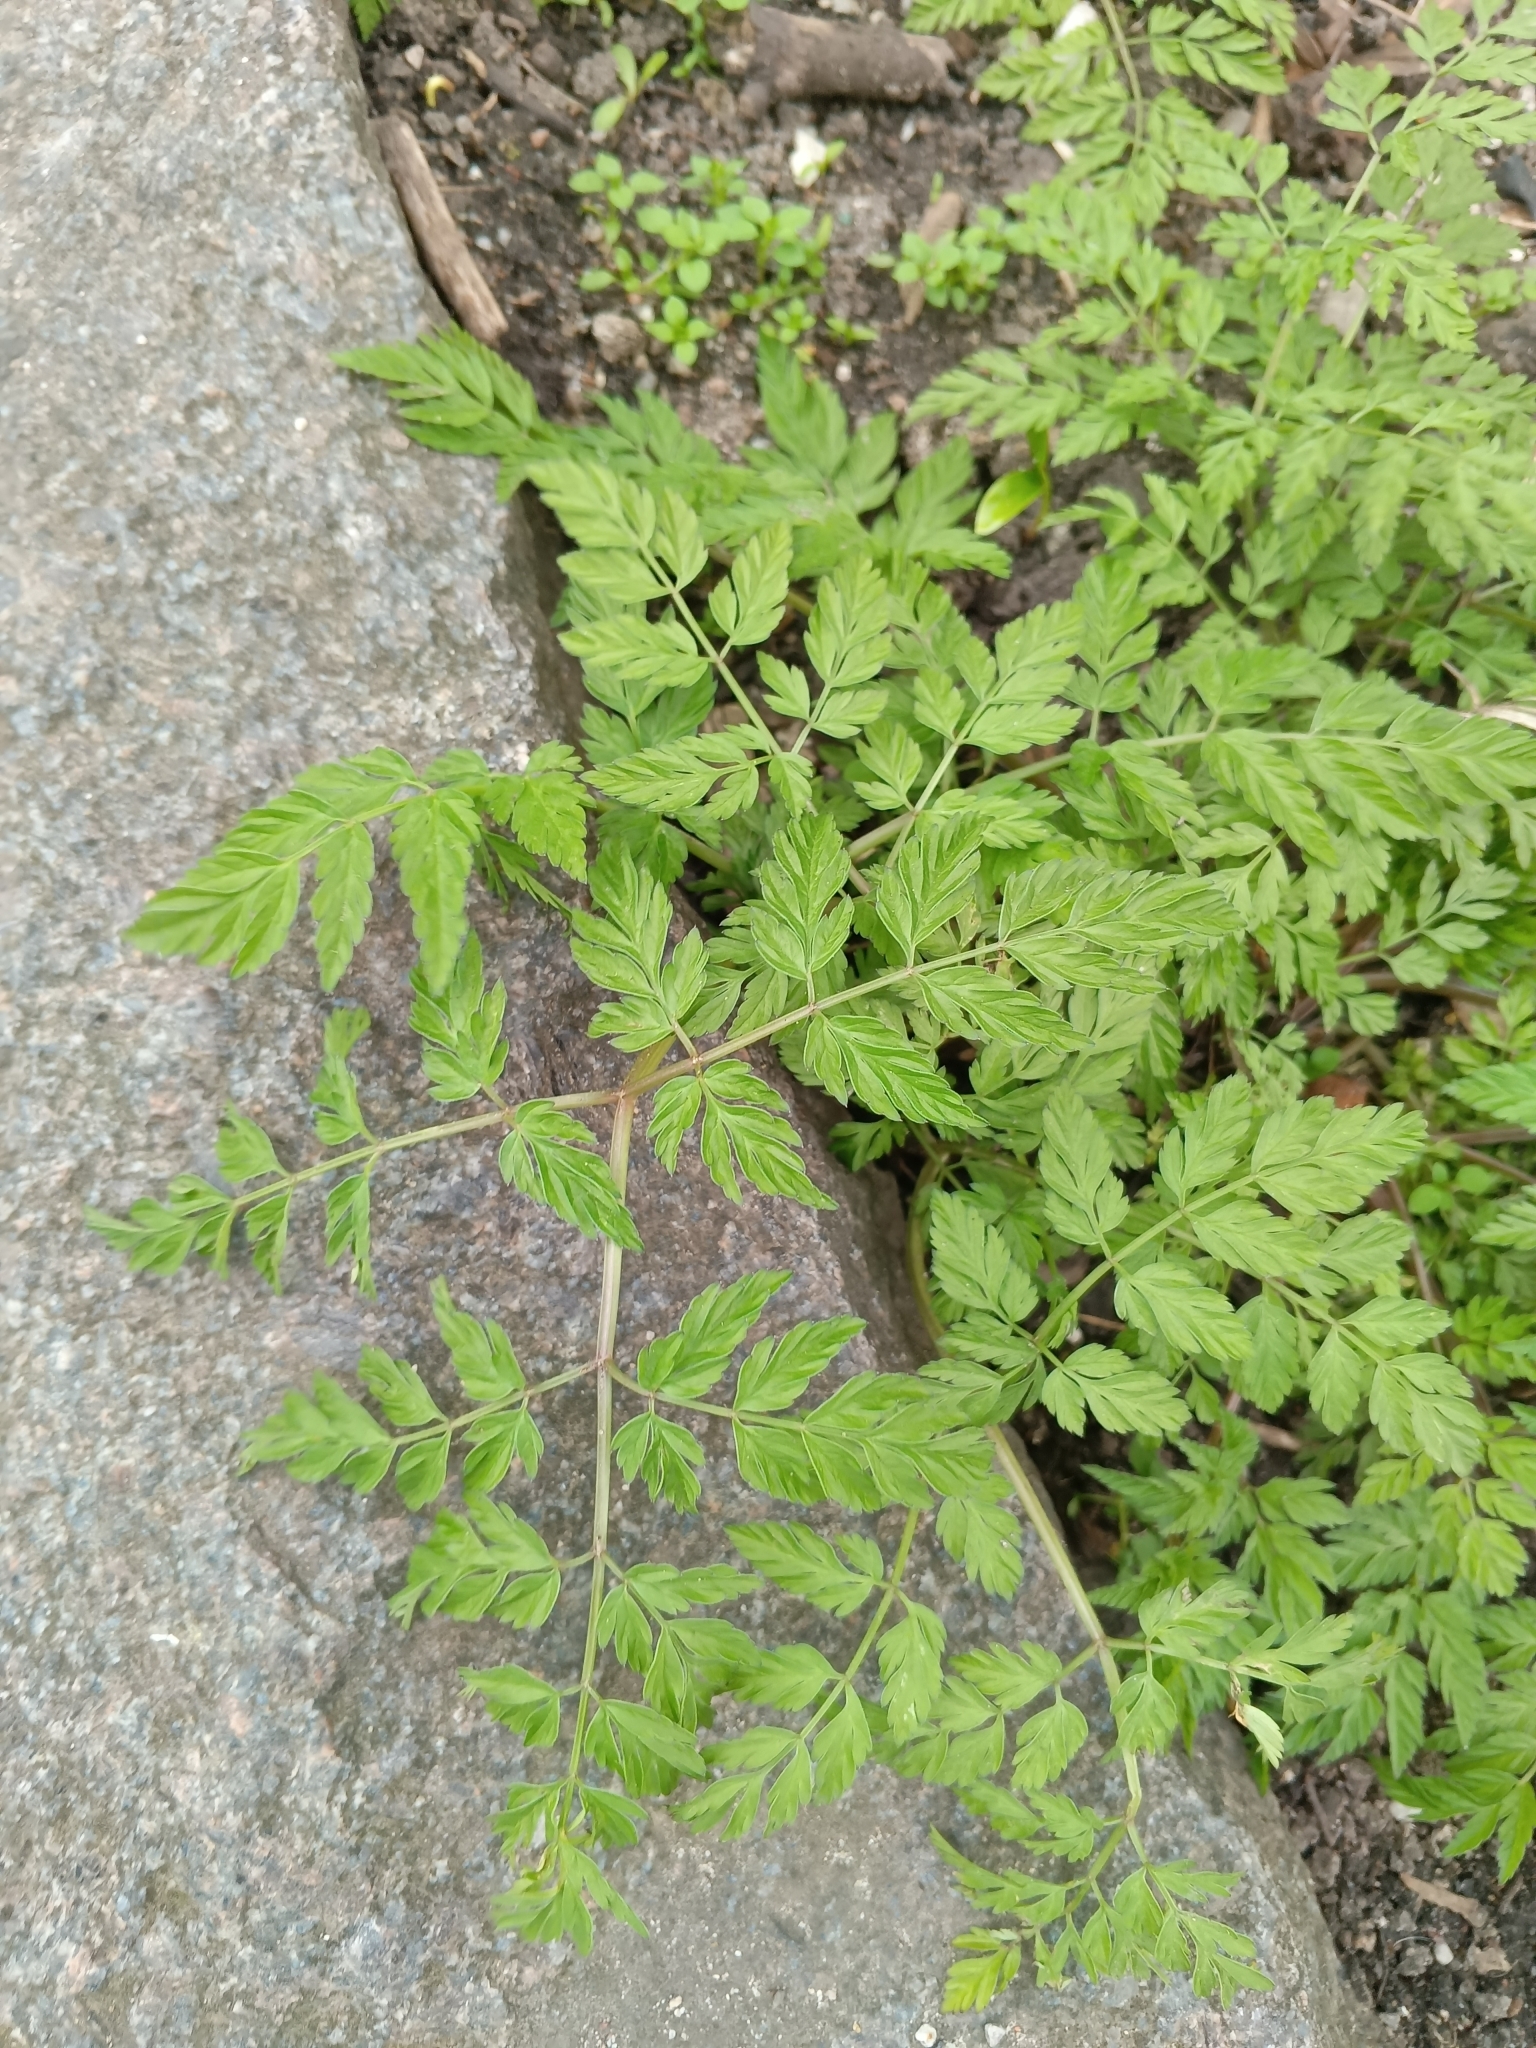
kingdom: Plantae
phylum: Tracheophyta
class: Magnoliopsida
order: Apiales
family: Apiaceae
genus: Anthriscus
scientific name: Anthriscus sylvestris
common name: Cow parsley
